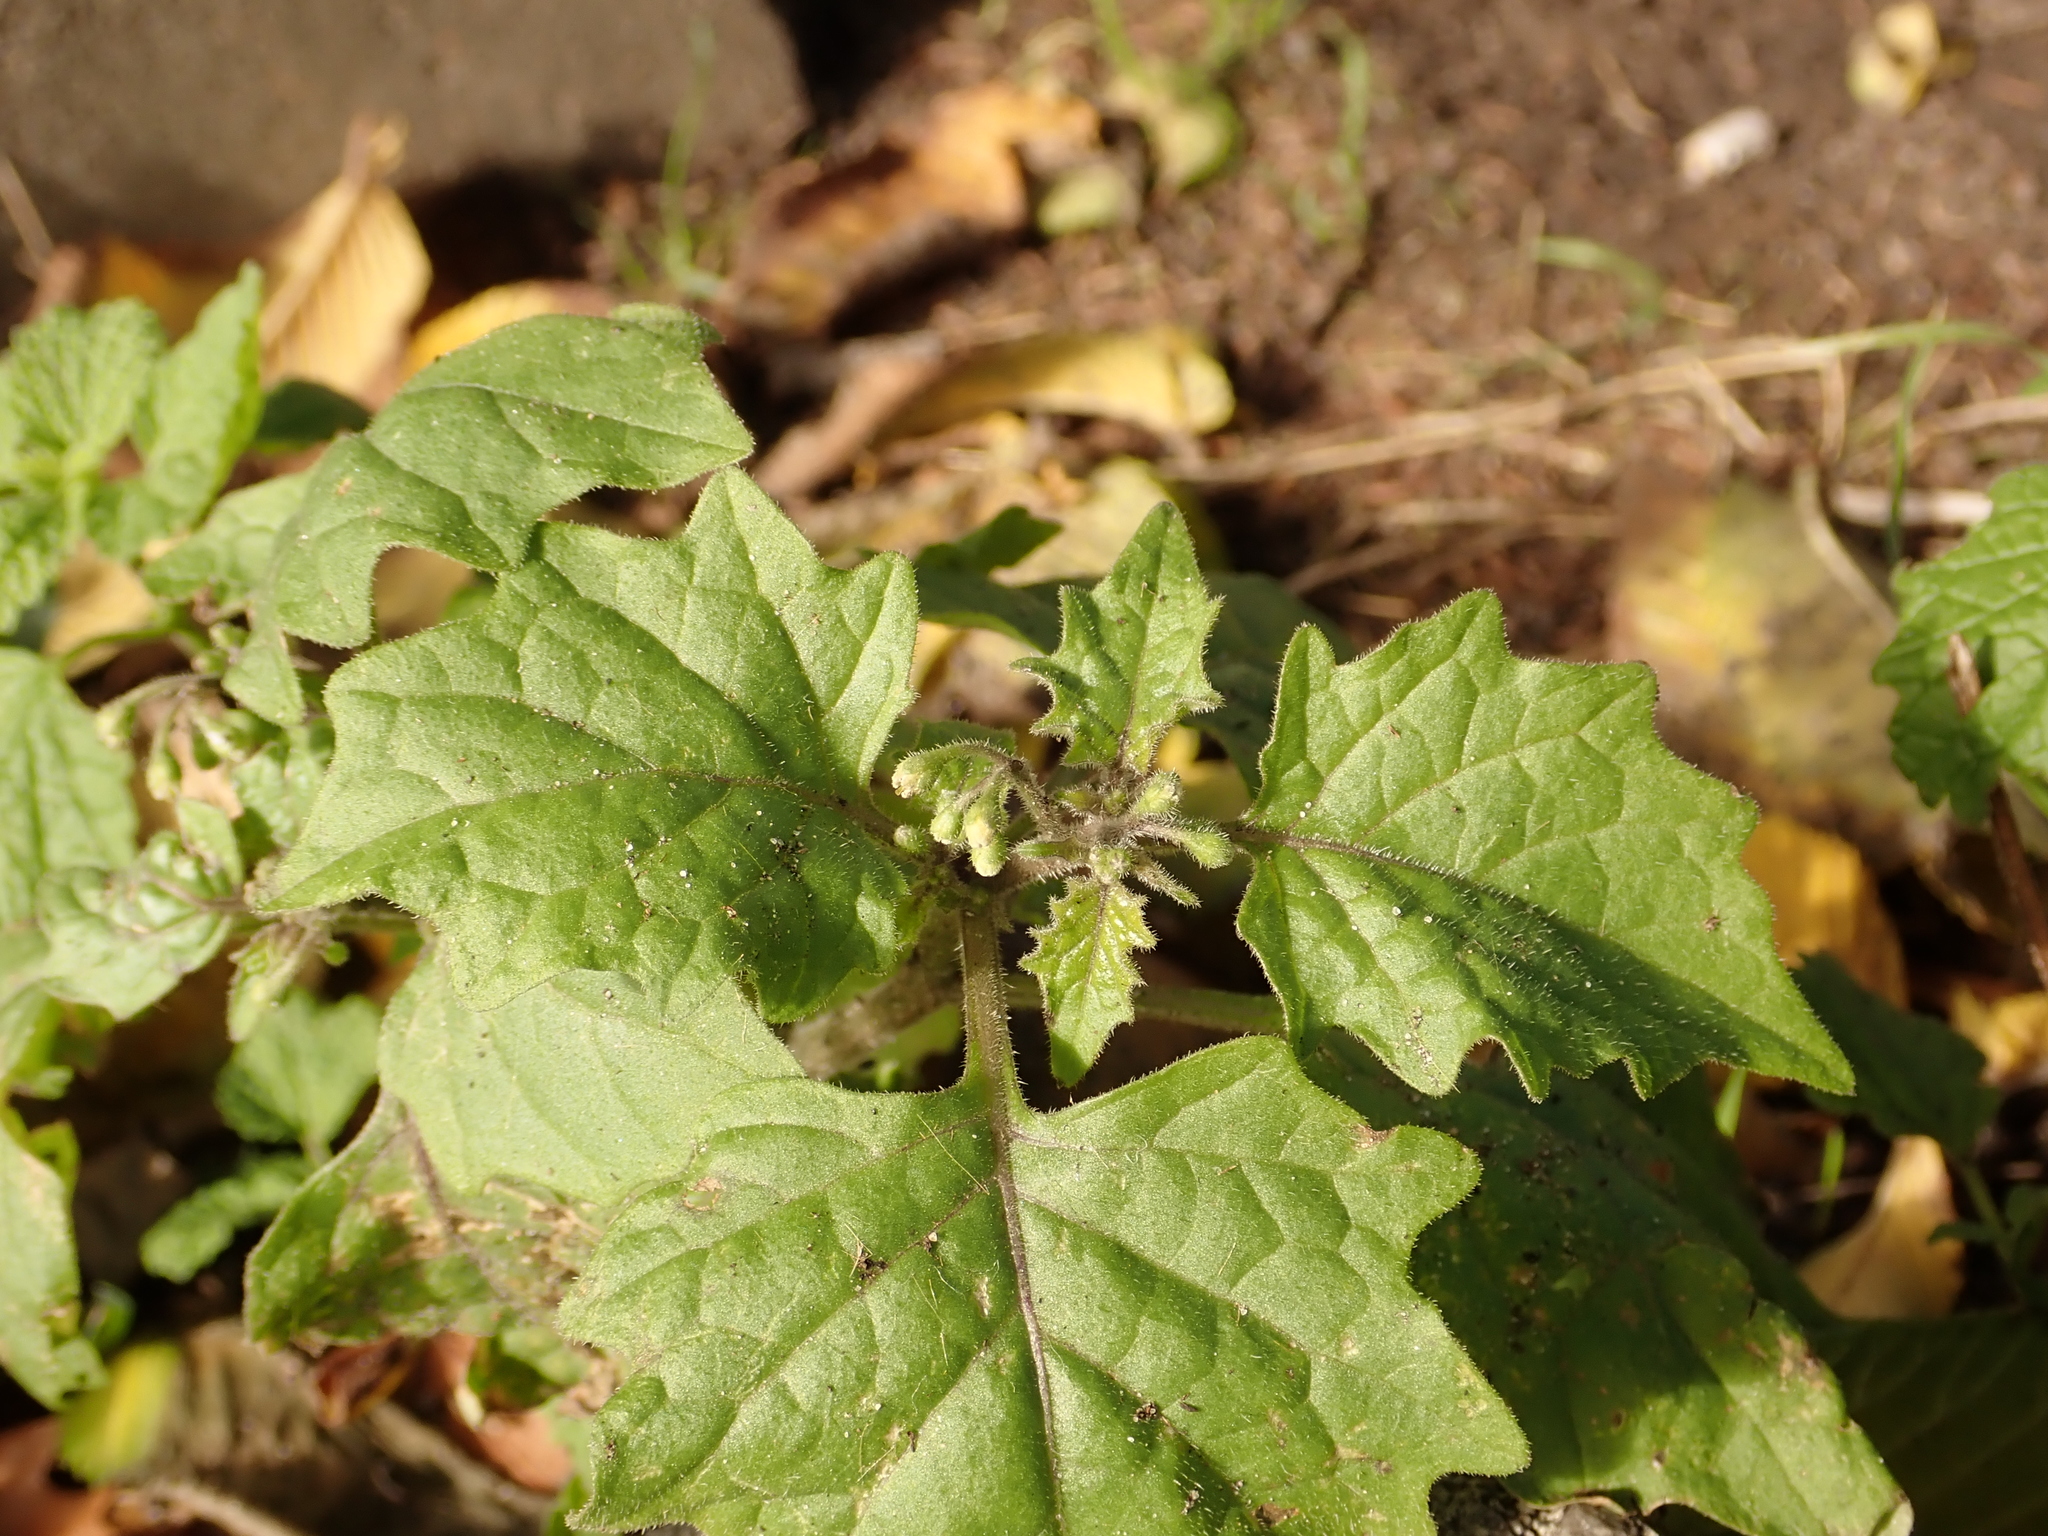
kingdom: Plantae
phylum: Tracheophyta
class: Magnoliopsida
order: Solanales
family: Solanaceae
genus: Solanum
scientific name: Solanum nigrum
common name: Black nightshade
